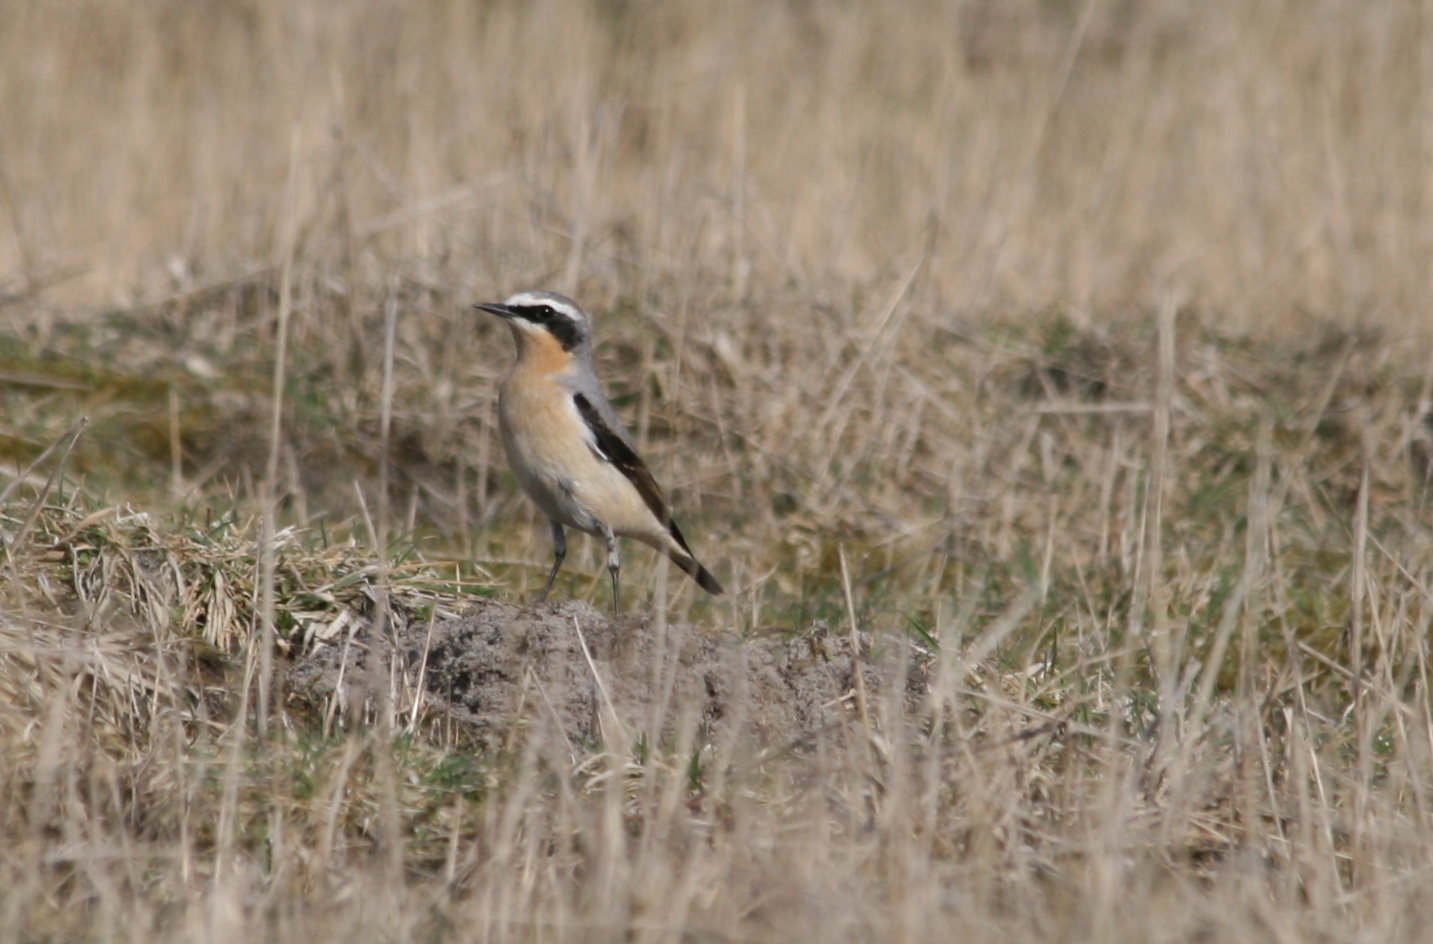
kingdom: Animalia
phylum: Chordata
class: Aves
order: Passeriformes
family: Muscicapidae
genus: Oenanthe
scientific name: Oenanthe oenanthe
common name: Northern wheatear
